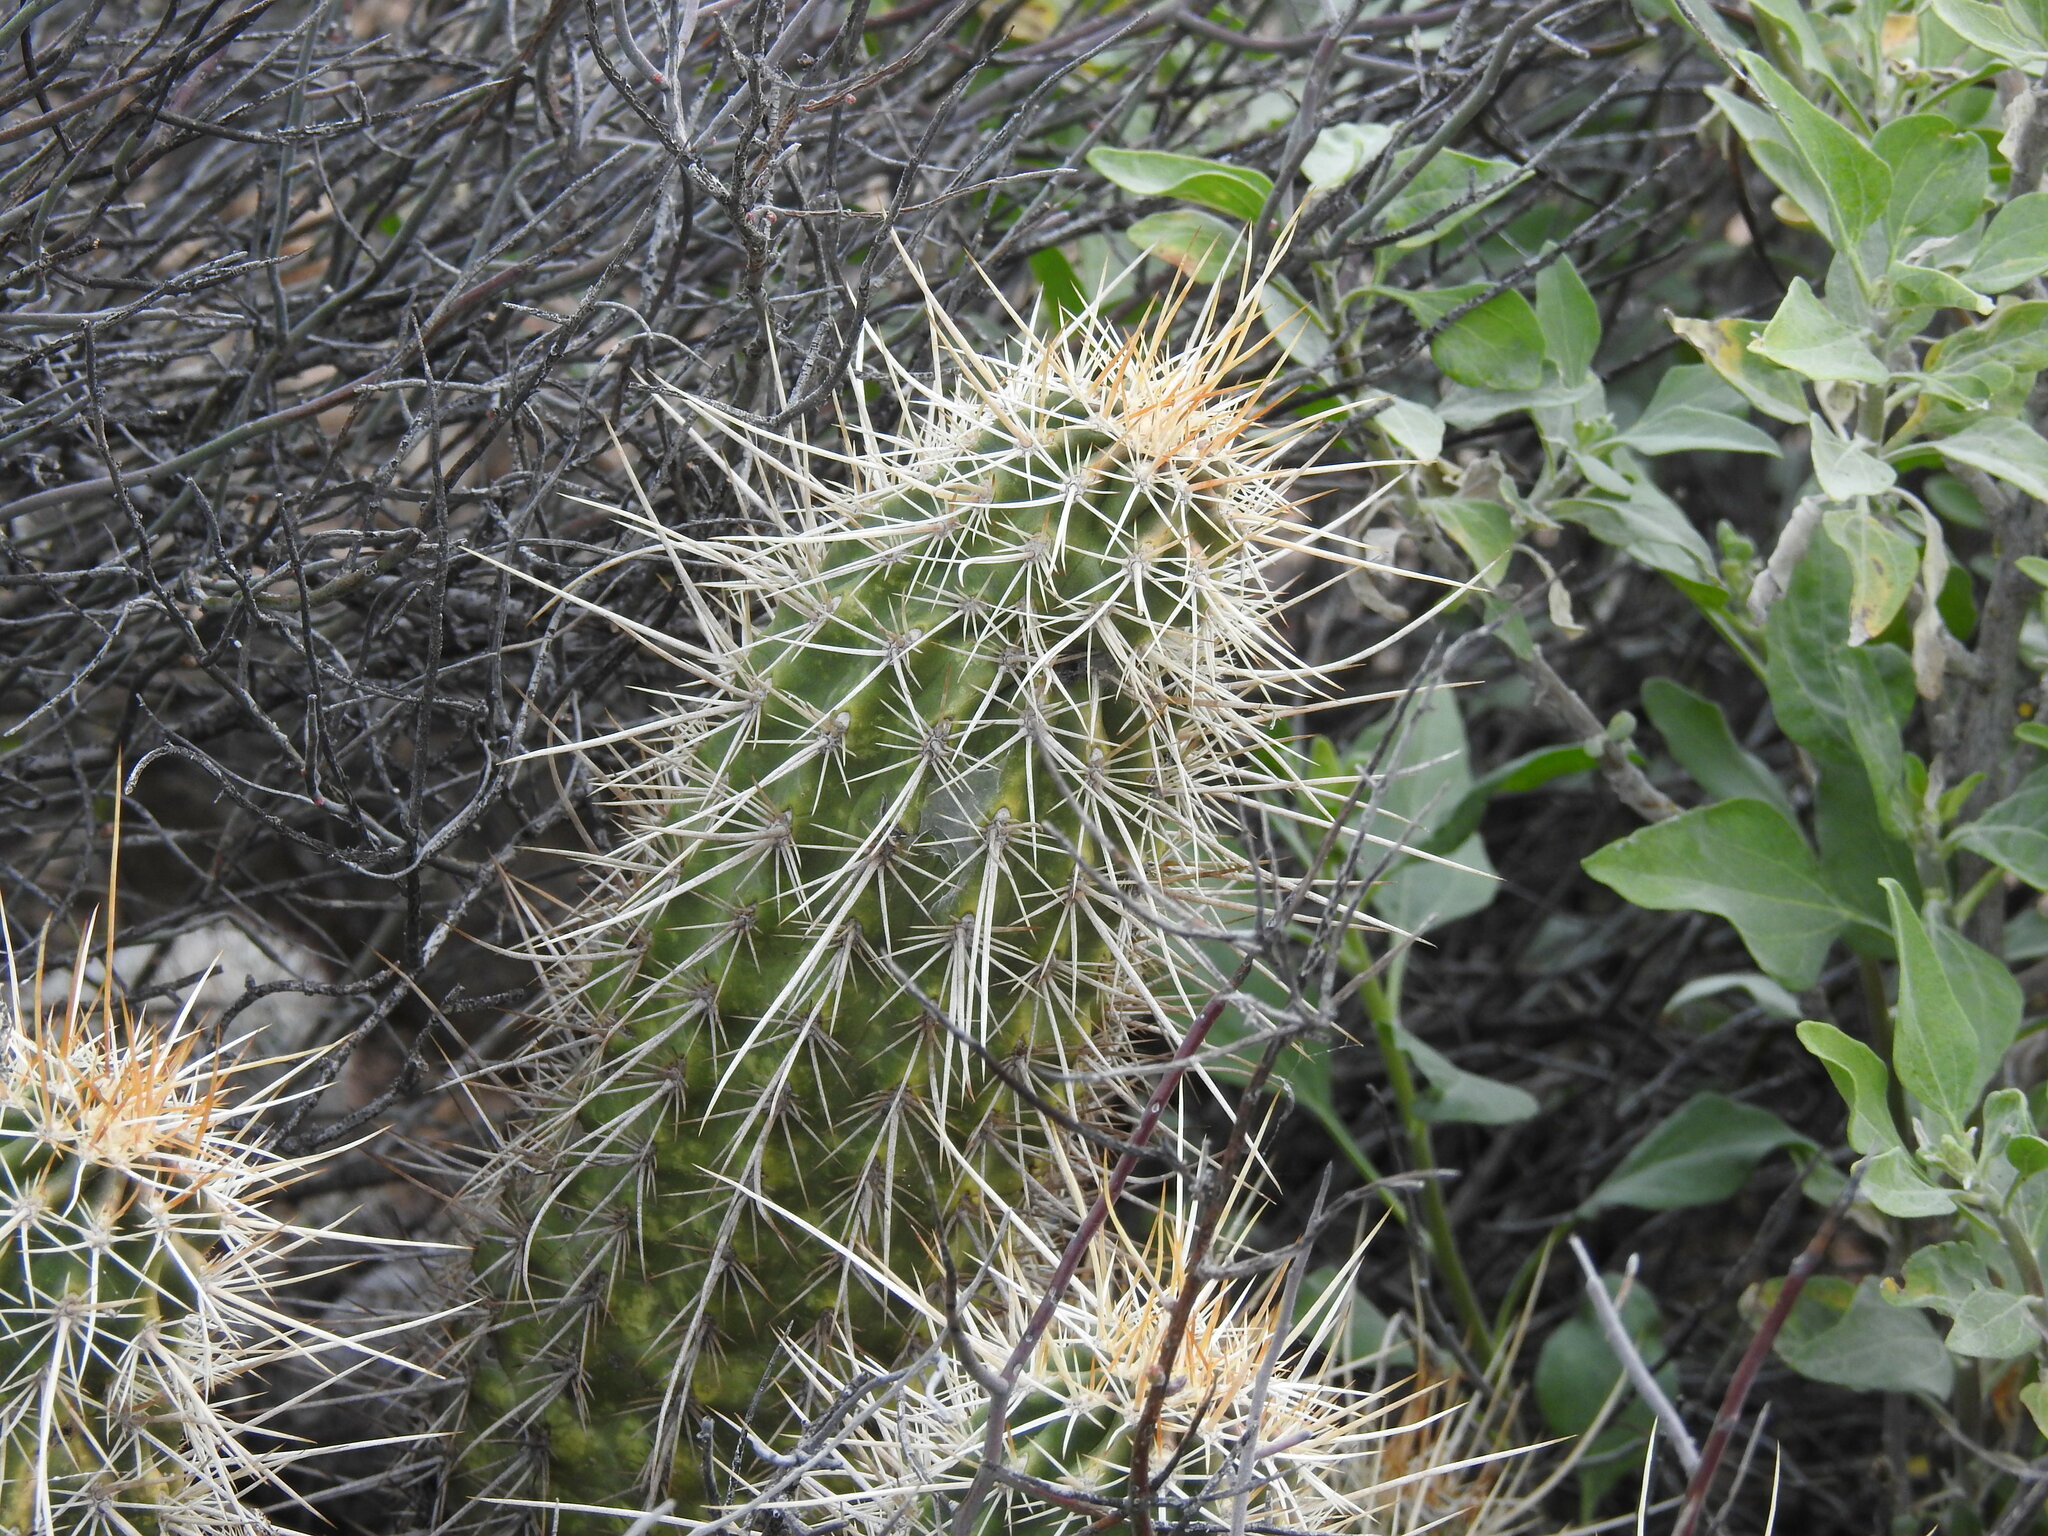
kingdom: Plantae
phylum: Tracheophyta
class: Magnoliopsida
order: Caryophyllales
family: Cactaceae
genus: Echinocereus
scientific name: Echinocereus engelmannii
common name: Engelmann's hedgehog cactus
